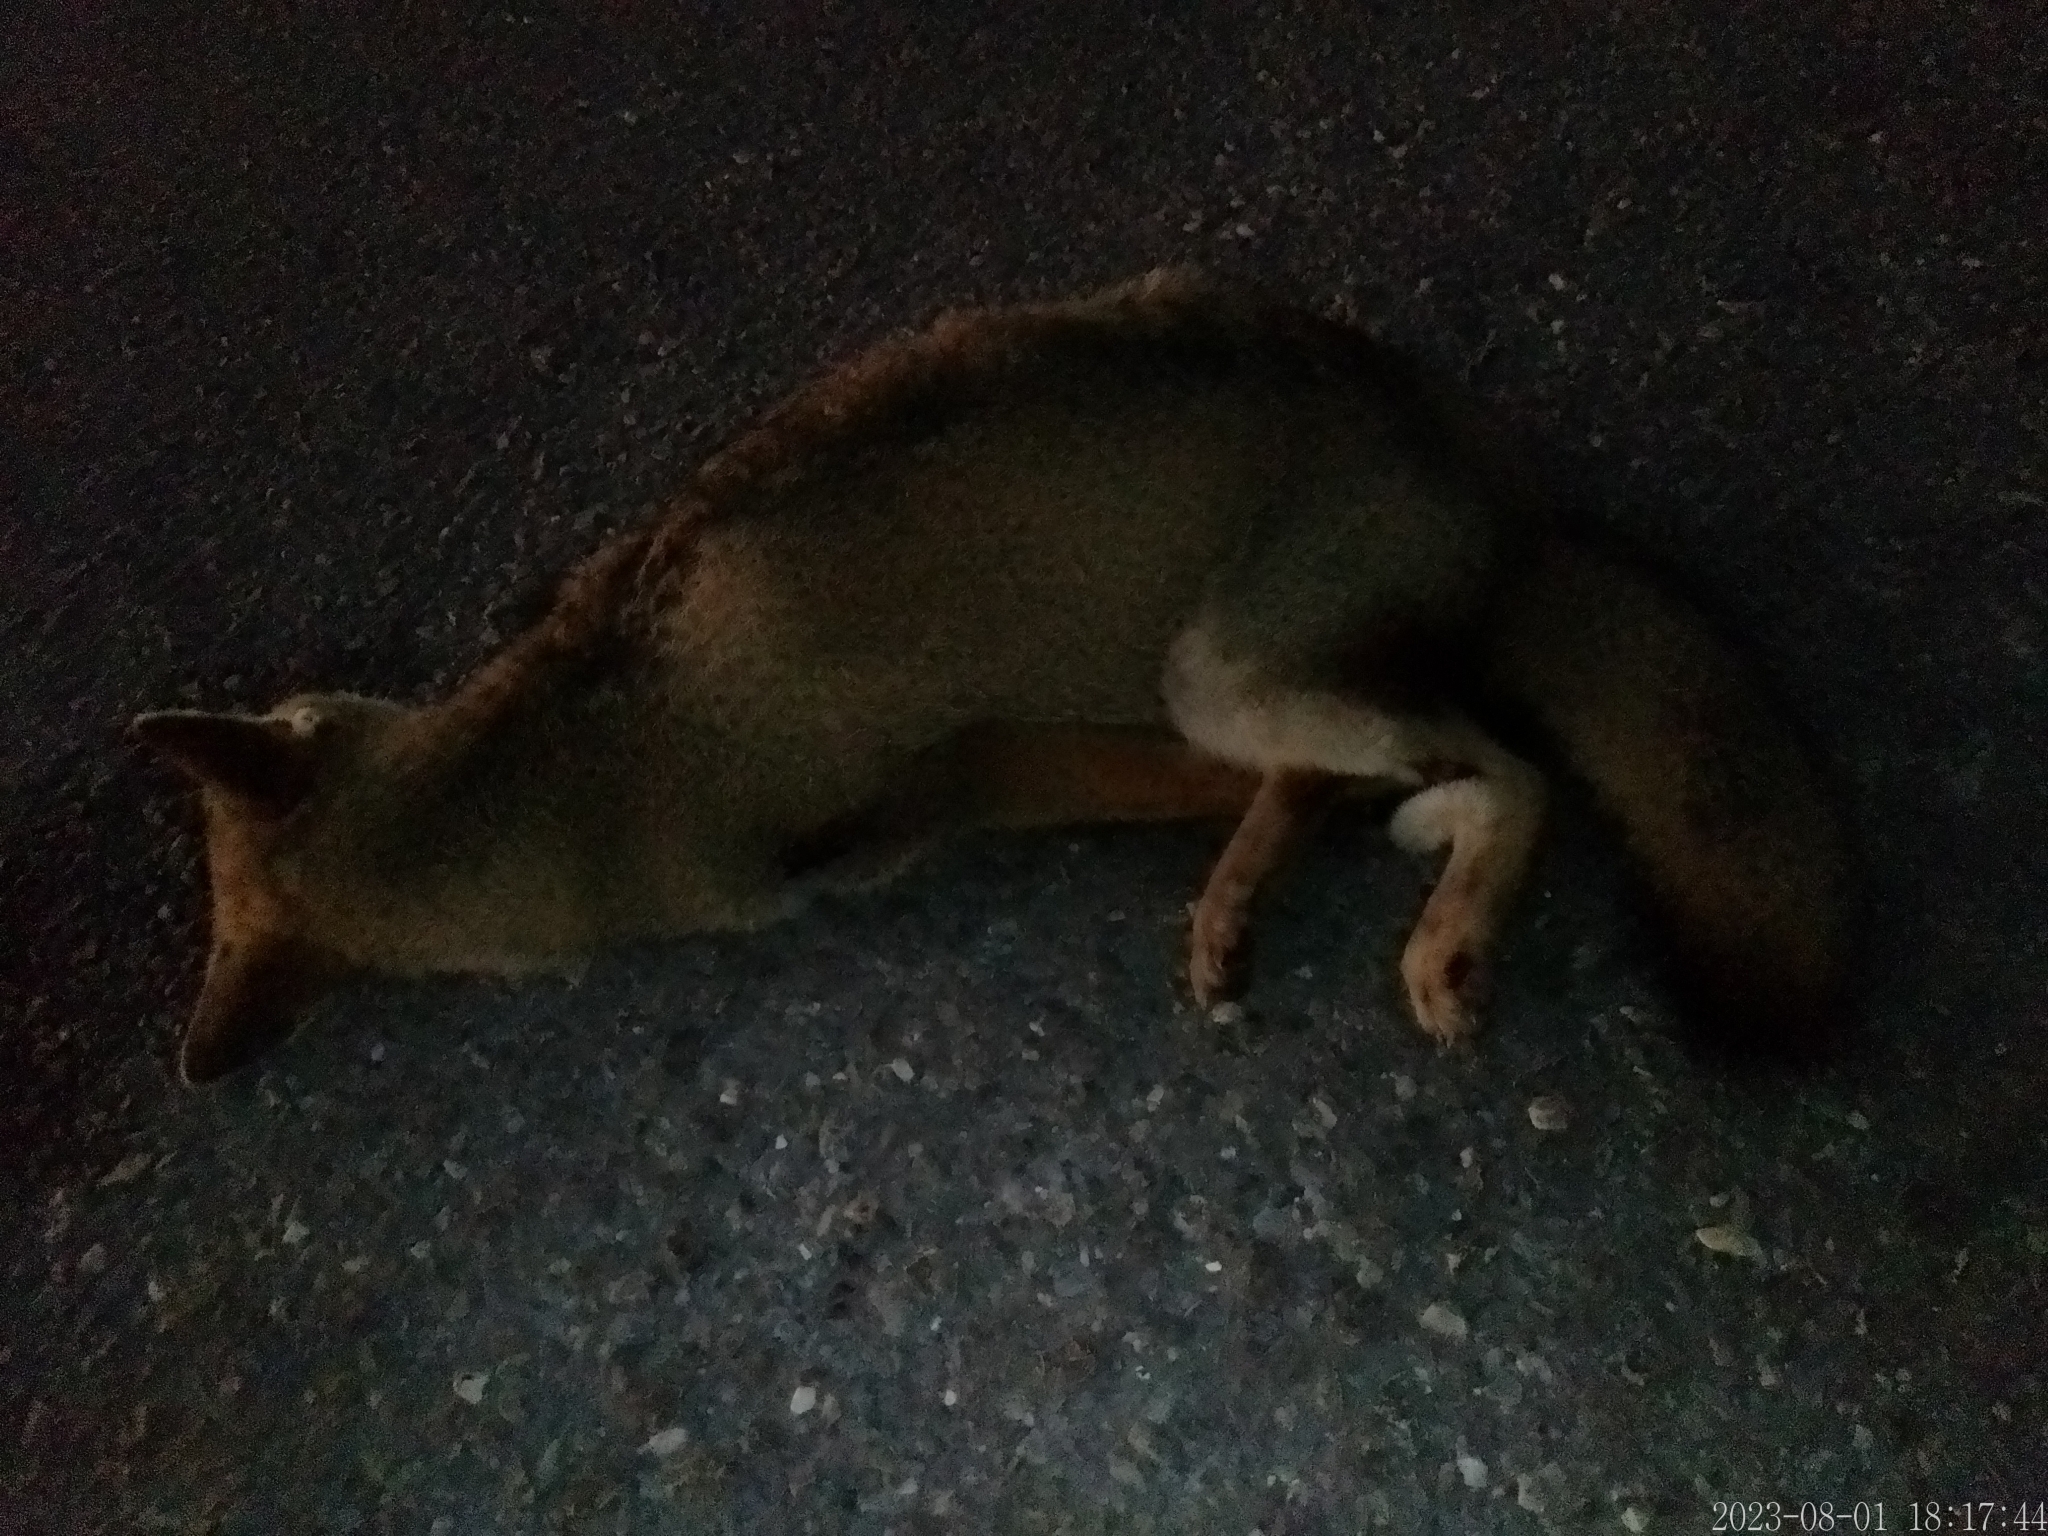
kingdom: Animalia
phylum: Chordata
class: Mammalia
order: Carnivora
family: Canidae
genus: Lycalopex
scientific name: Lycalopex gymnocercus
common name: Pampas fox
